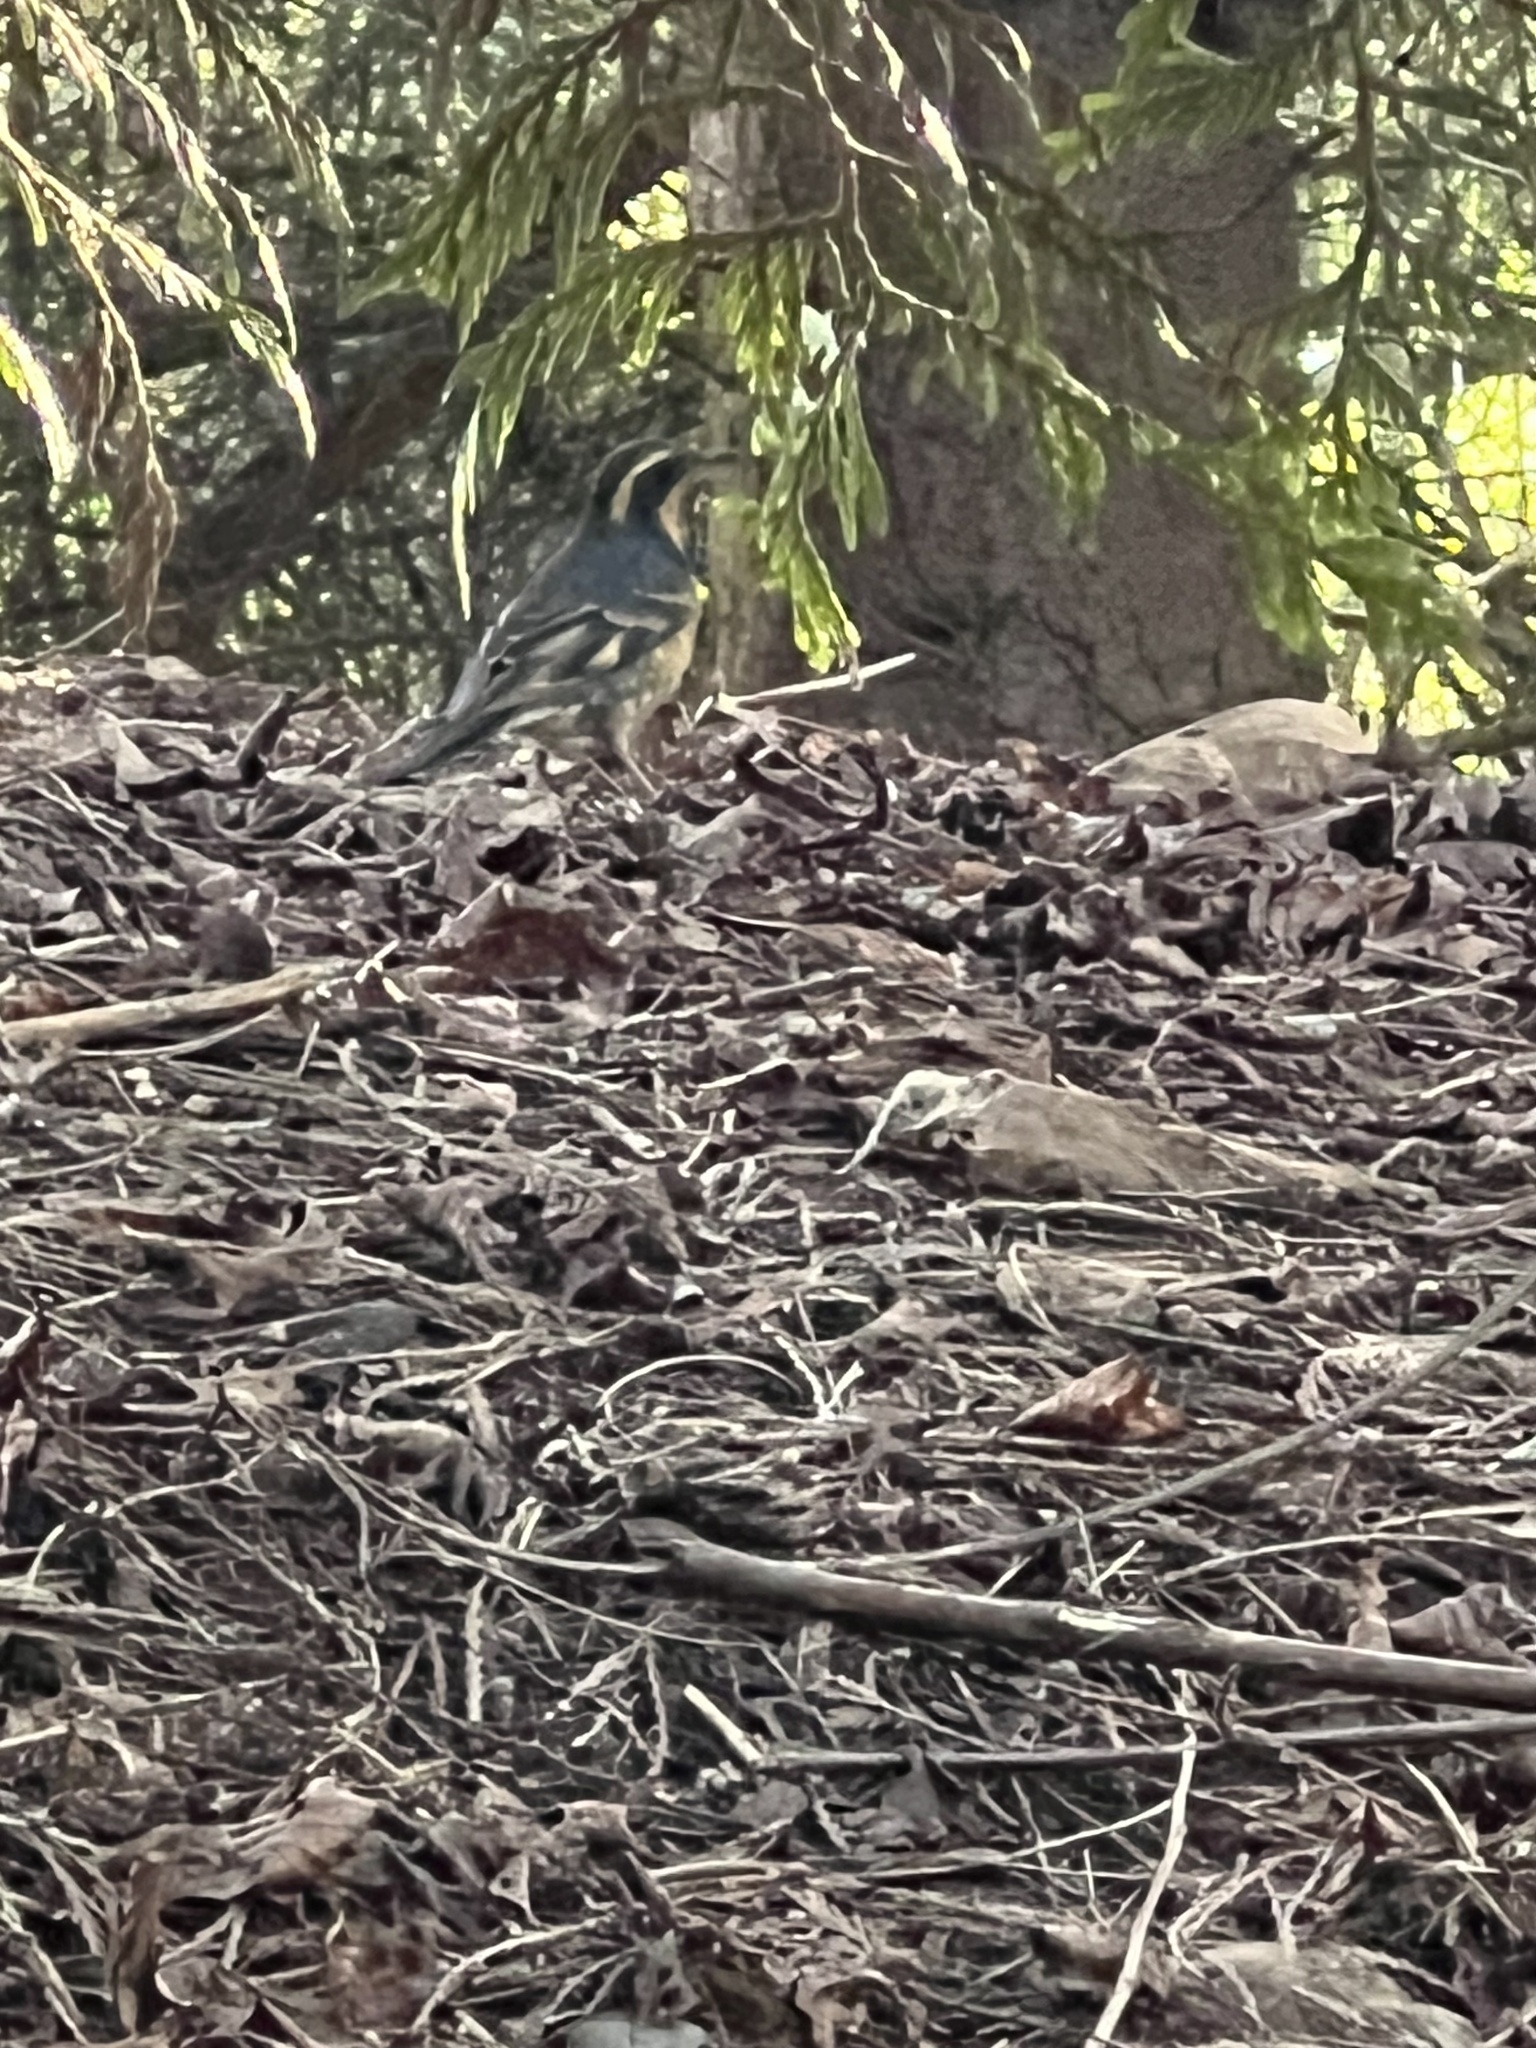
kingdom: Animalia
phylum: Chordata
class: Aves
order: Passeriformes
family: Turdidae
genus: Ixoreus
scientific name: Ixoreus naevius
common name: Varied thrush
